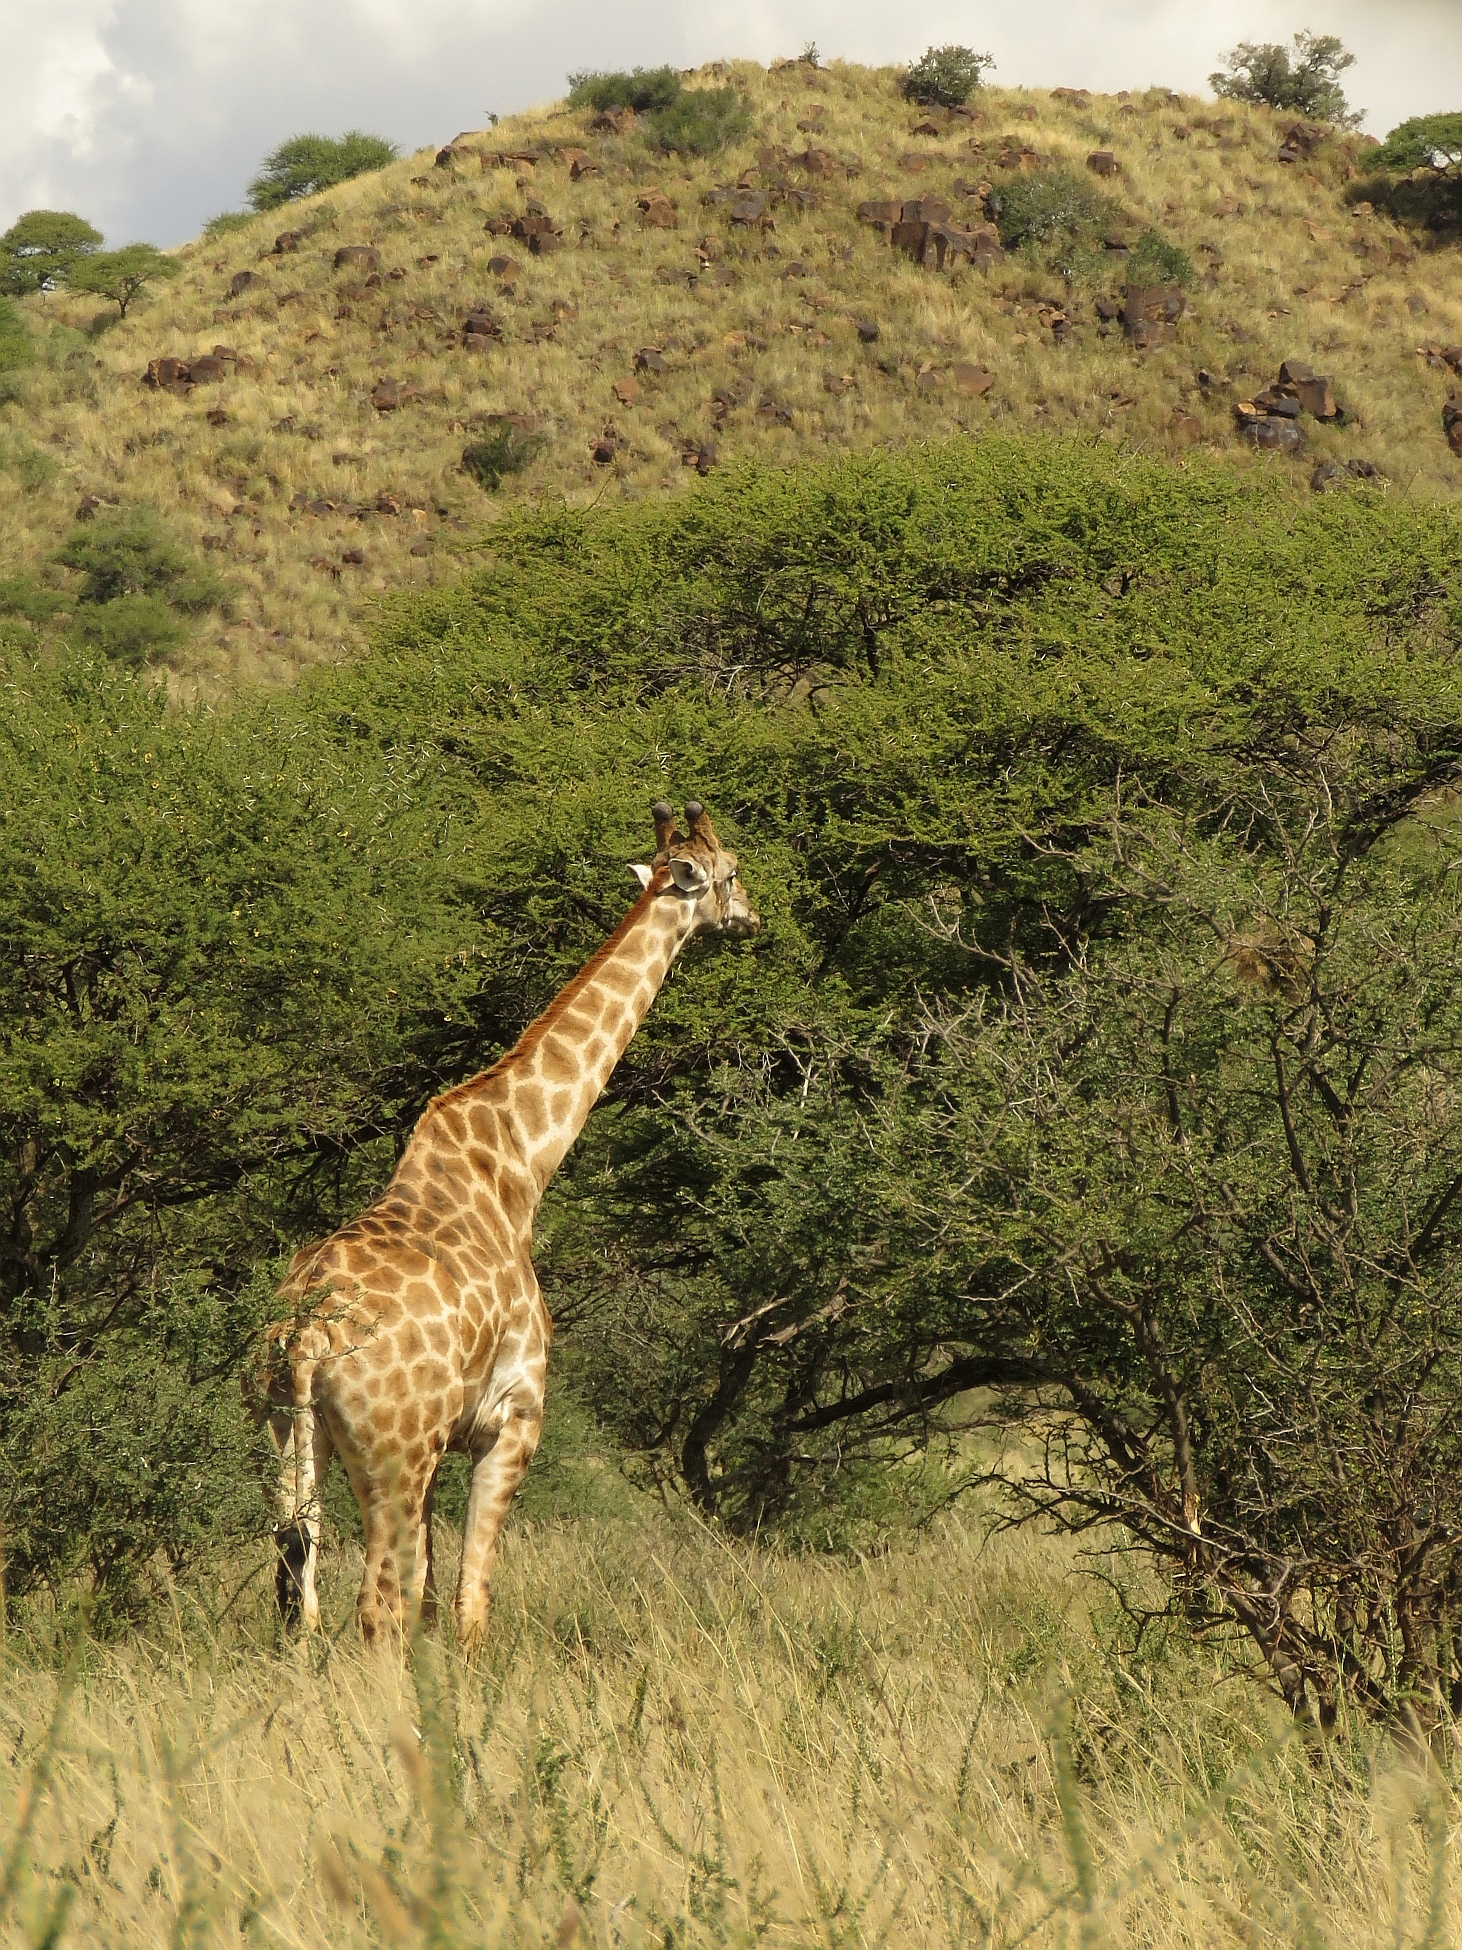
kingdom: Animalia
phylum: Chordata
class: Mammalia
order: Artiodactyla
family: Giraffidae
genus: Giraffa
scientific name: Giraffa giraffa
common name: Southern giraffe
